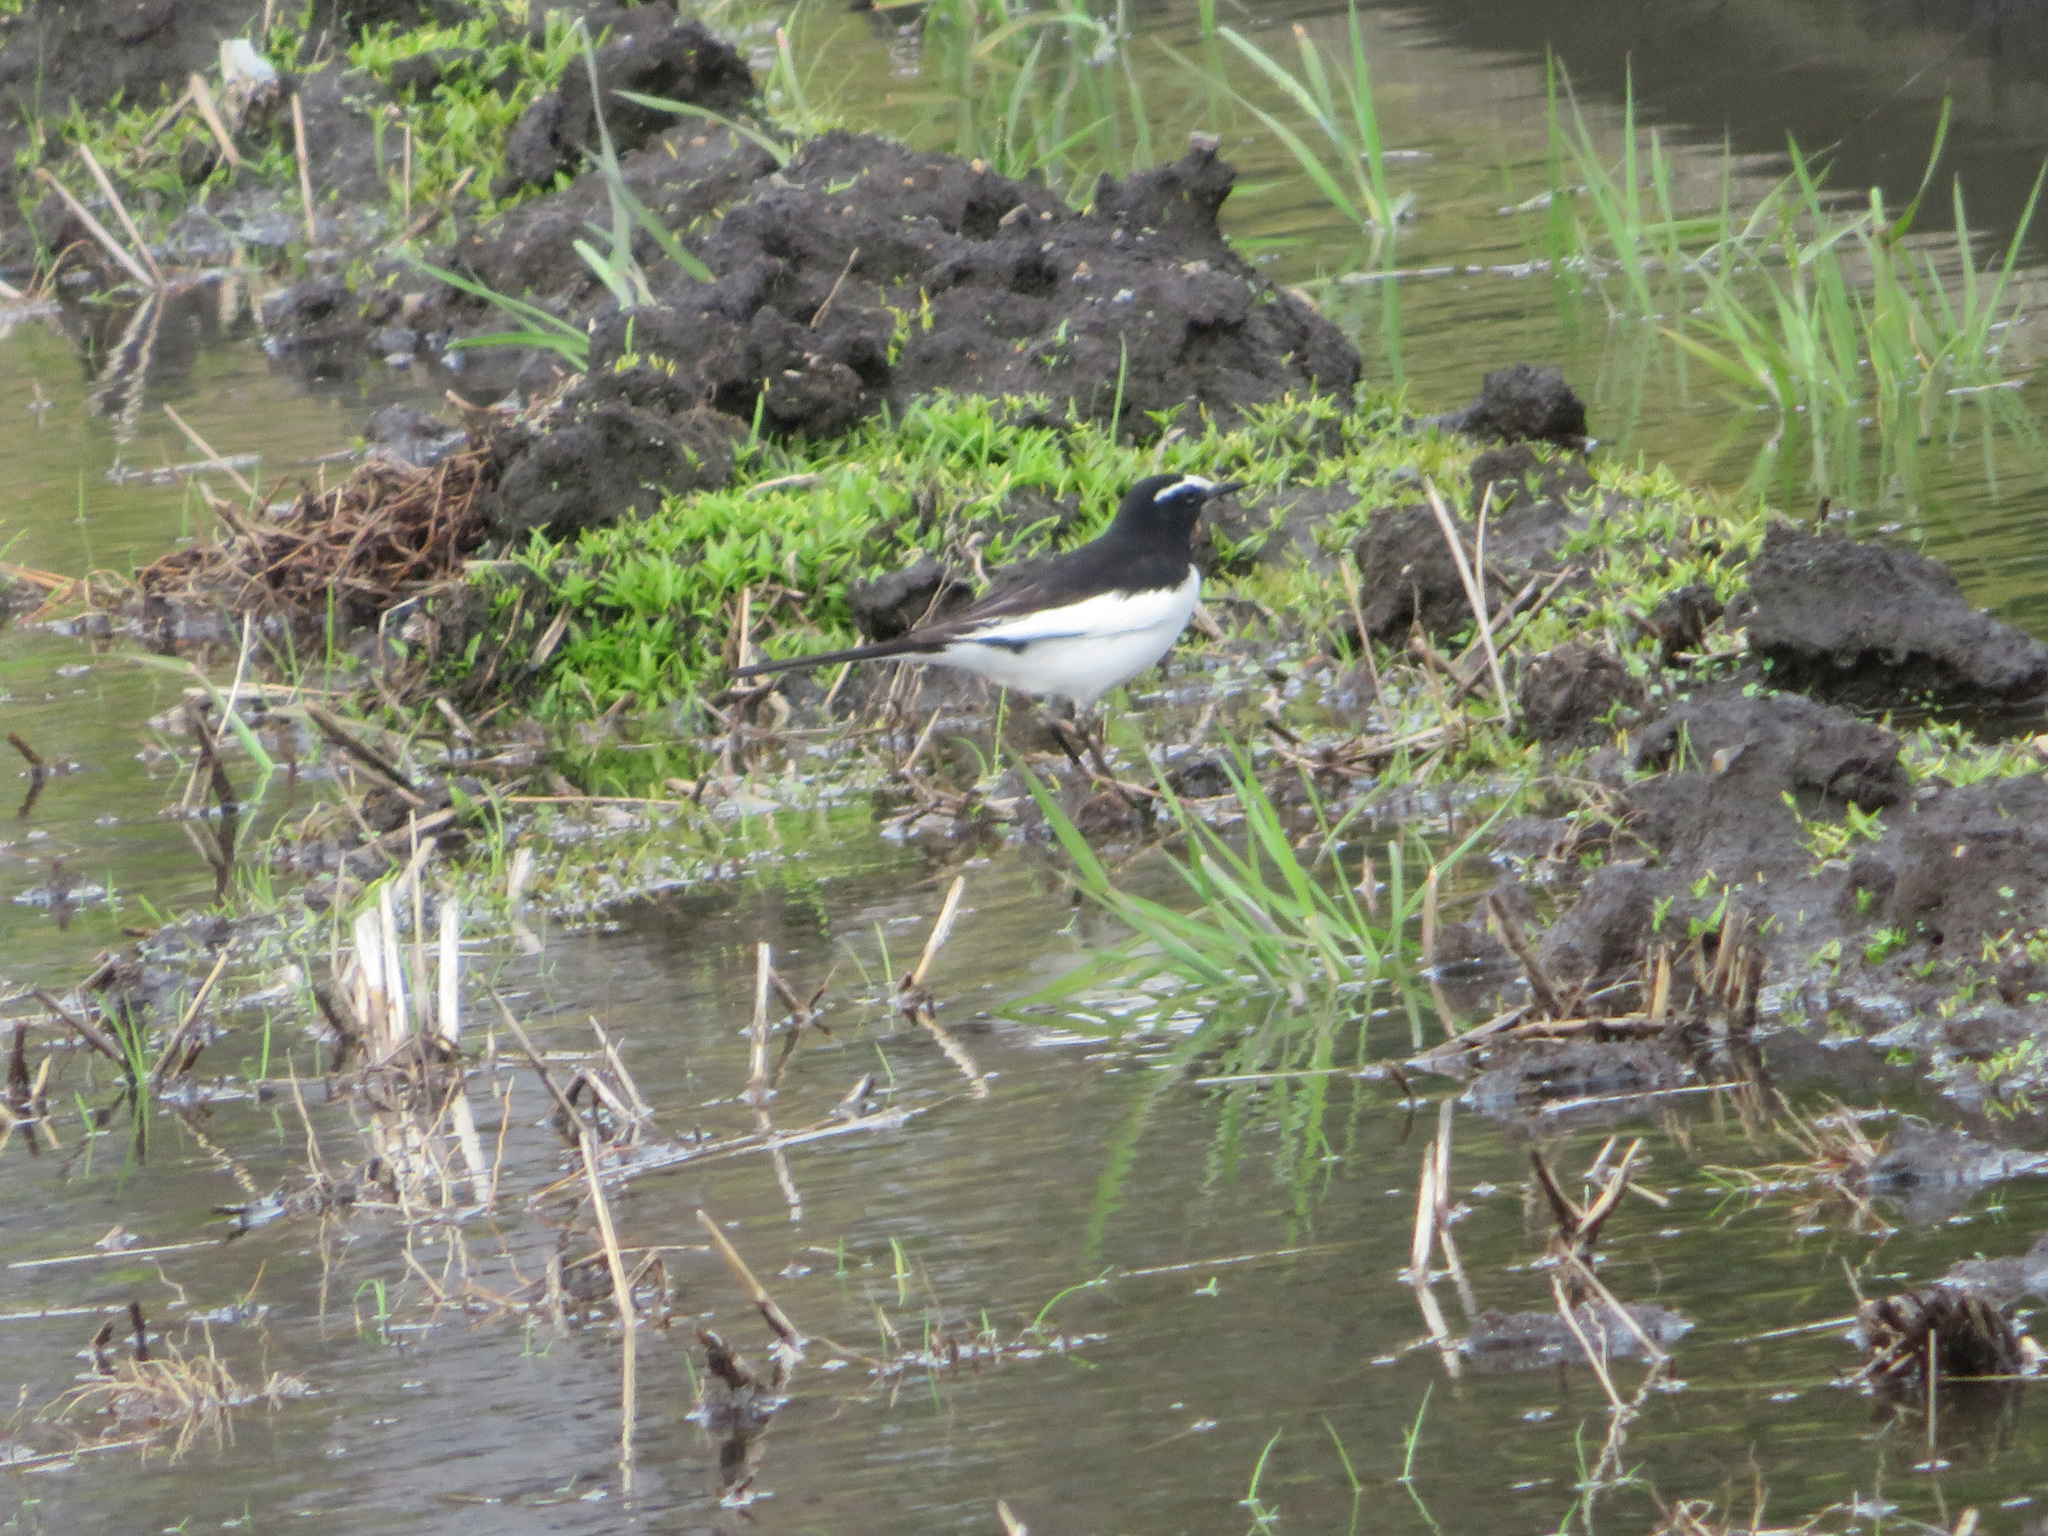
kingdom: Animalia
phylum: Chordata
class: Aves
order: Passeriformes
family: Motacillidae
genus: Motacilla
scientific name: Motacilla grandis
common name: Japanese wagtail
